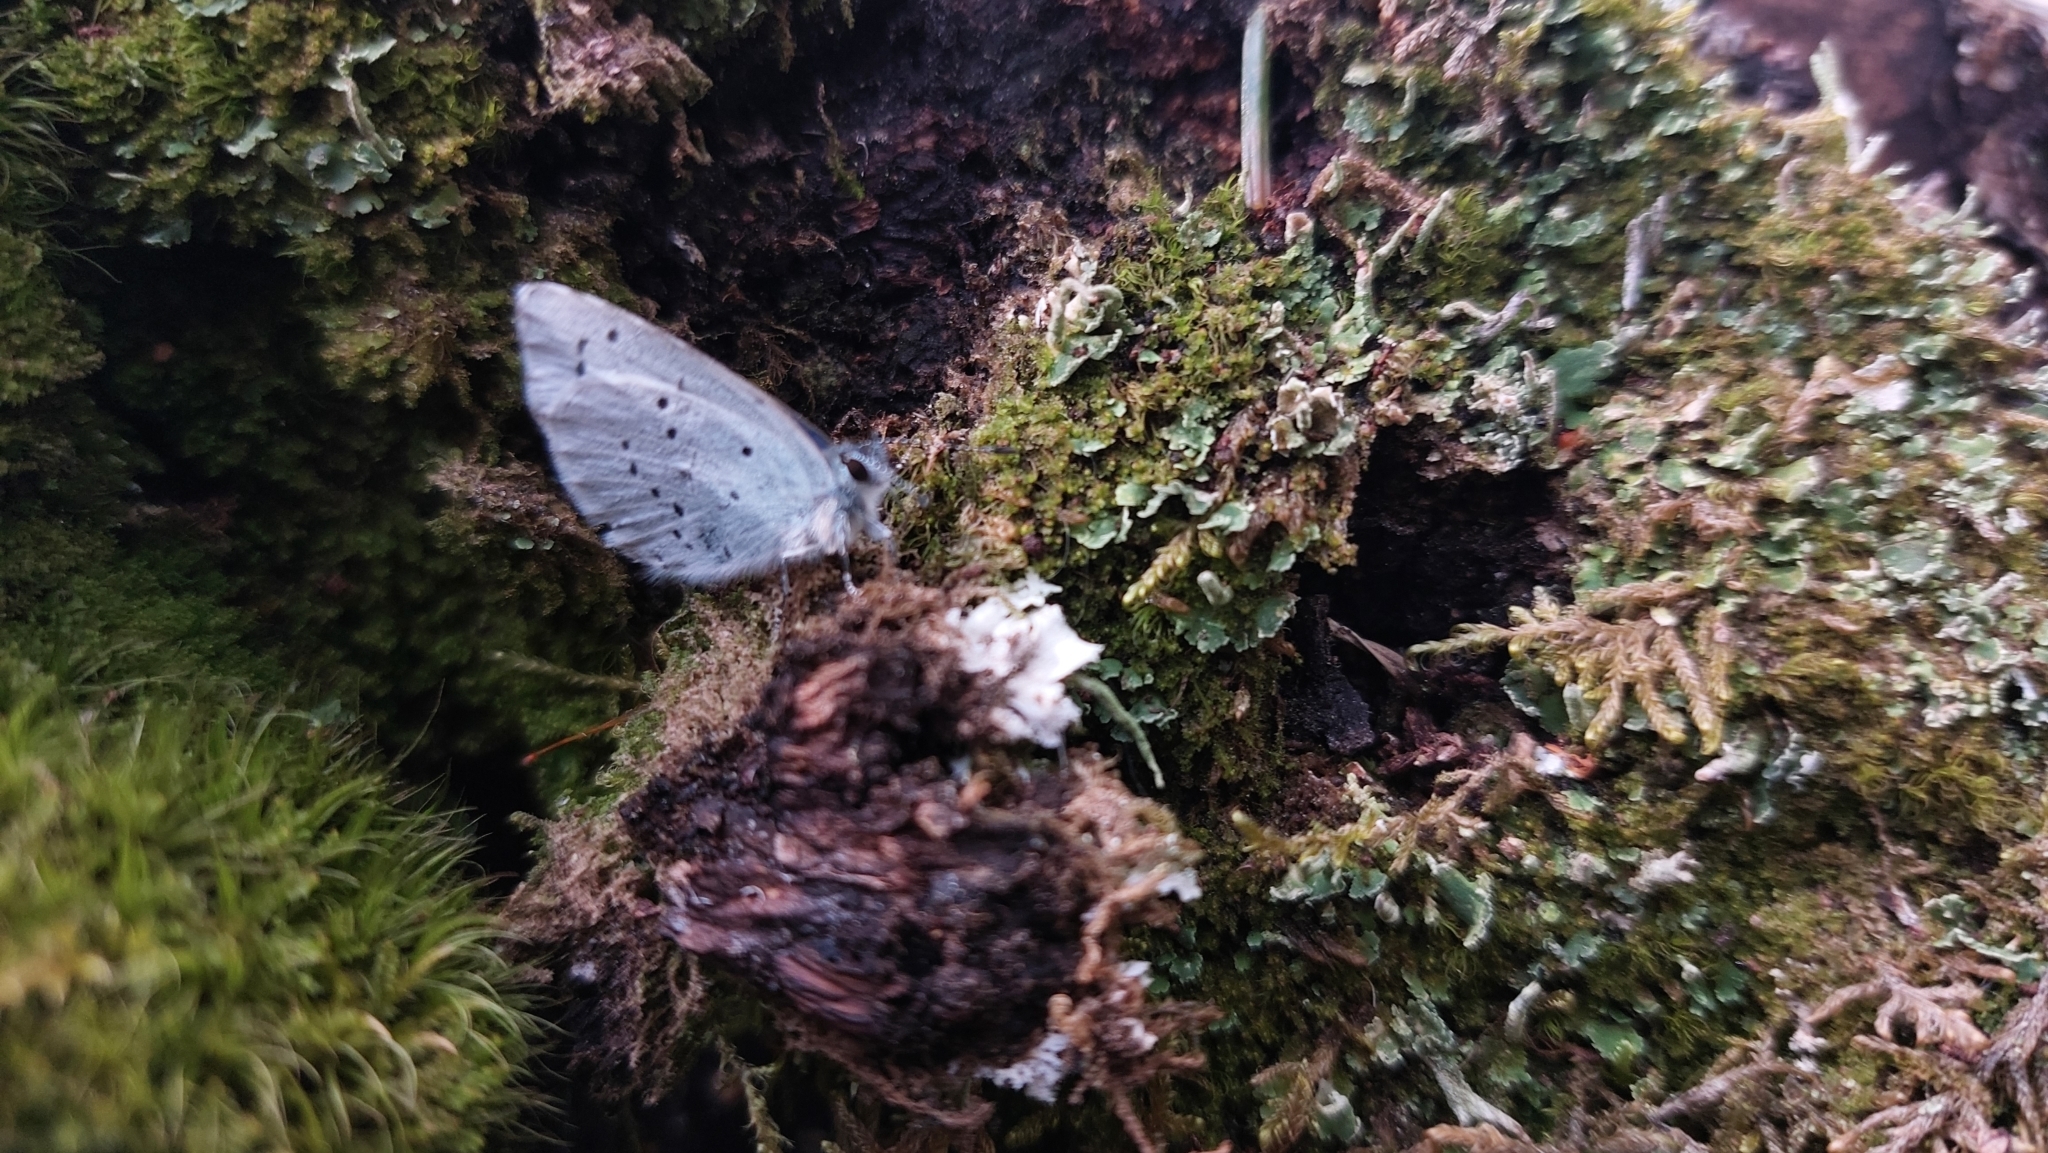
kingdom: Animalia
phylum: Arthropoda
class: Insecta
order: Lepidoptera
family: Lycaenidae
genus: Celastrina
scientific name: Celastrina argiolus
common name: Holly blue
